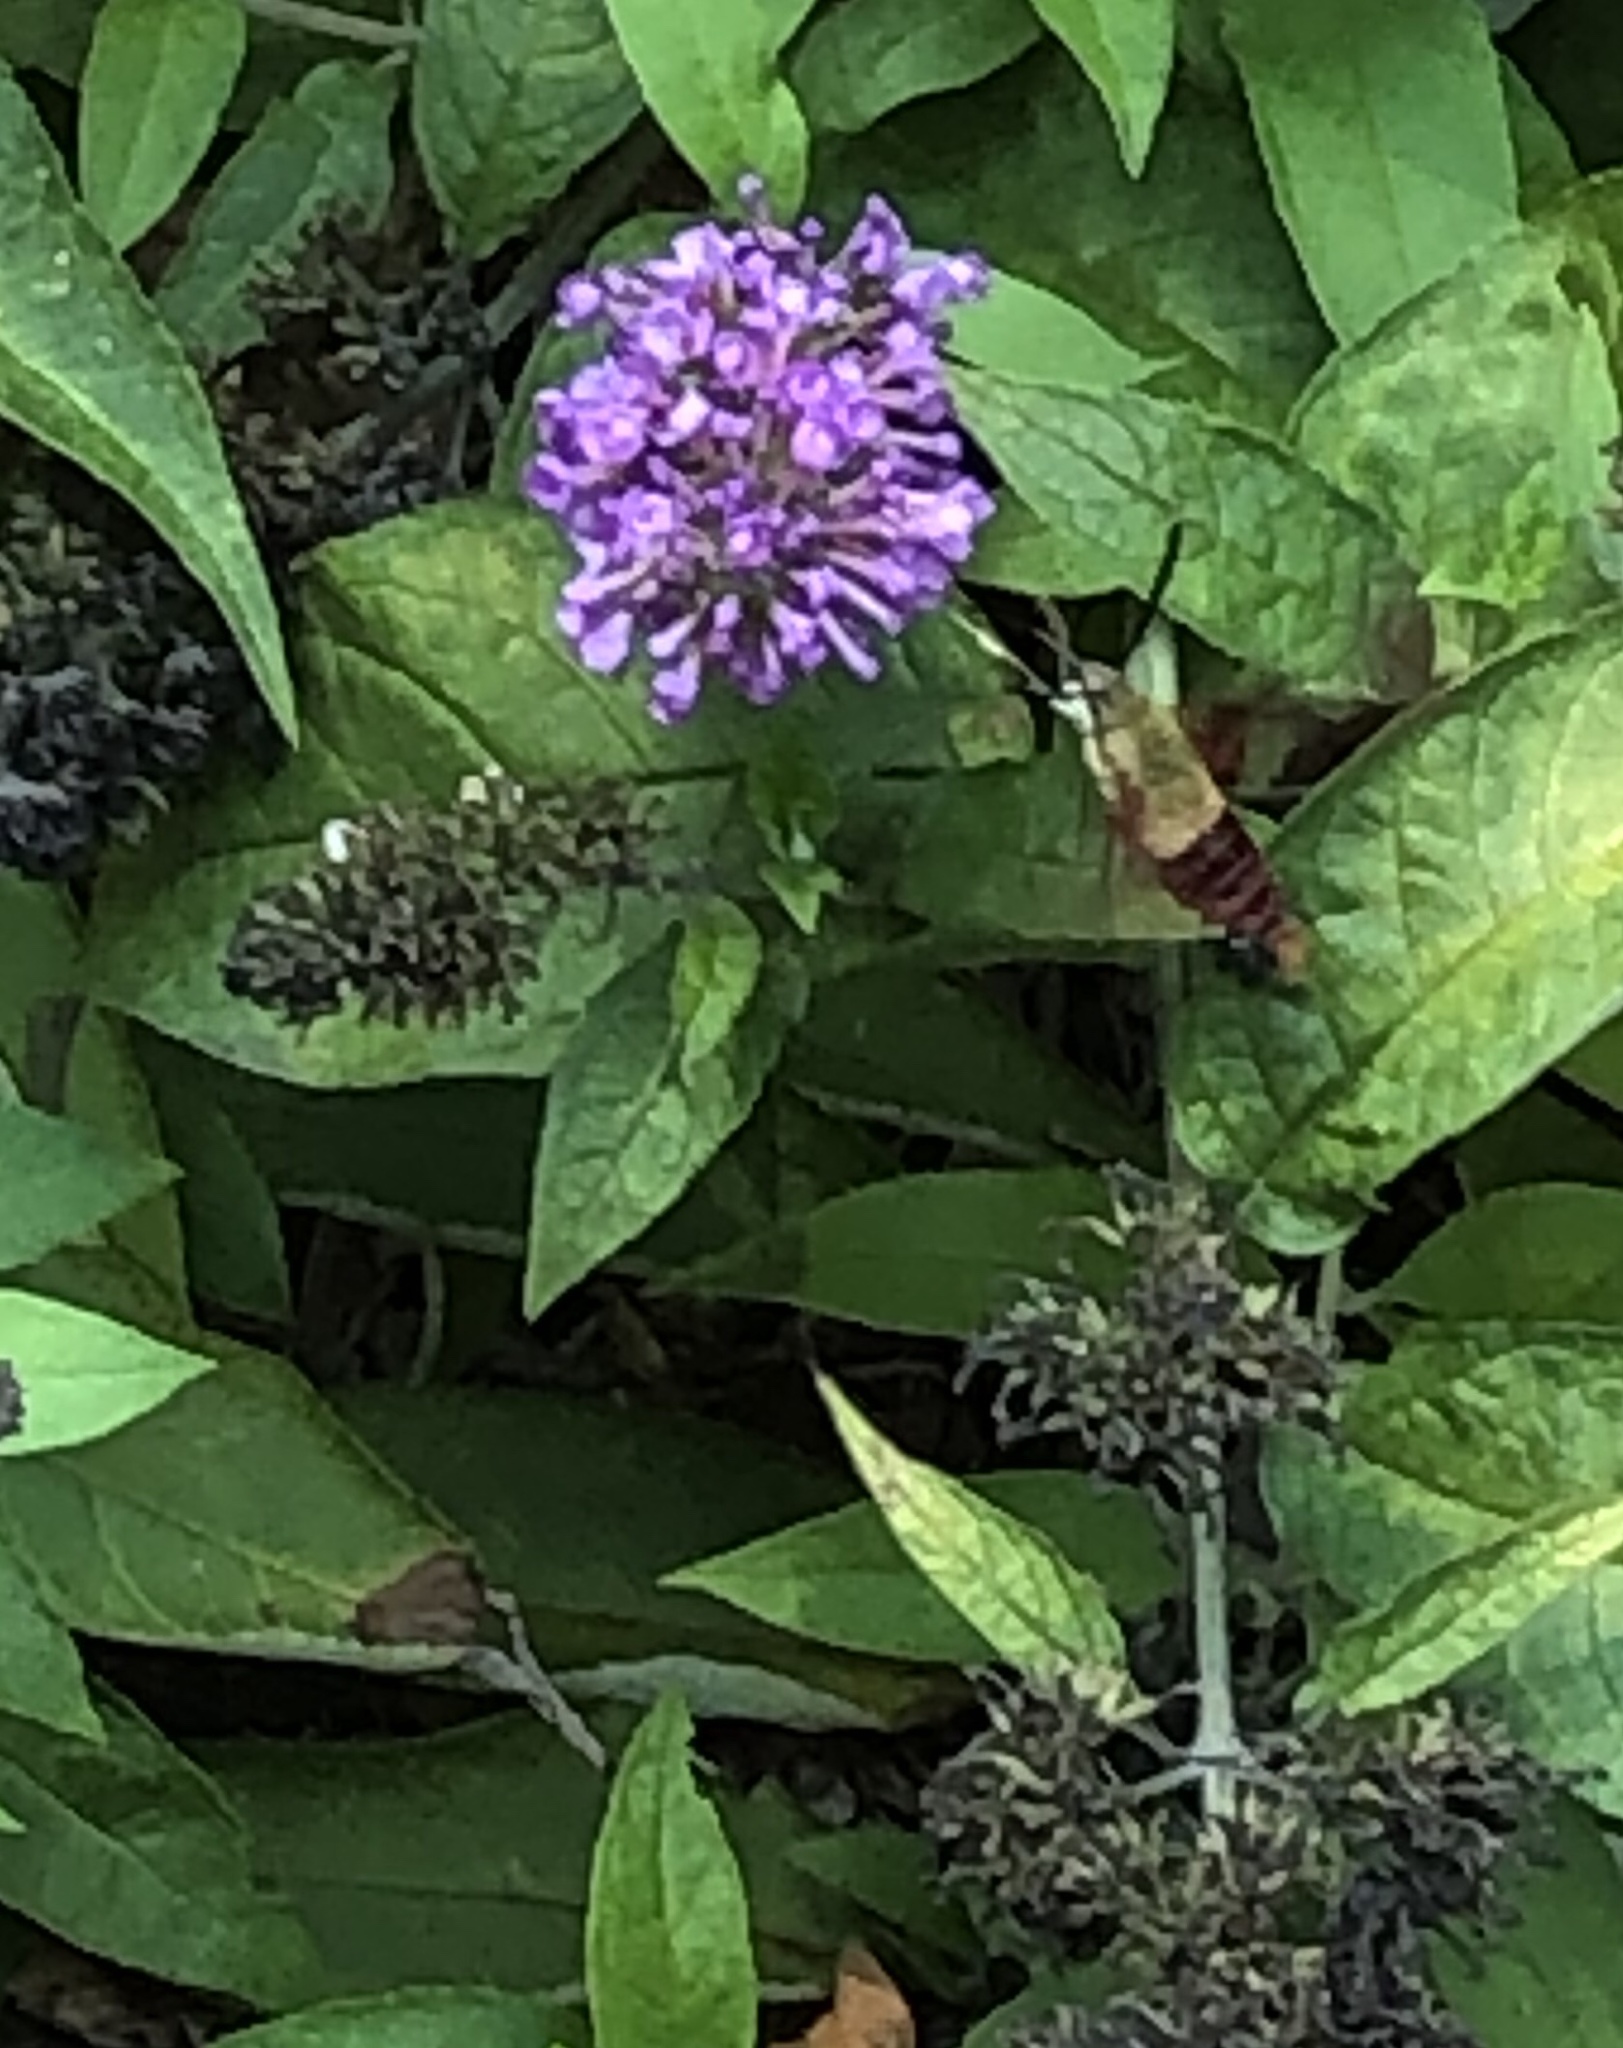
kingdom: Animalia
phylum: Arthropoda
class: Insecta
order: Lepidoptera
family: Sphingidae
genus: Hemaris
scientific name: Hemaris thysbe
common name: Common clear-wing
